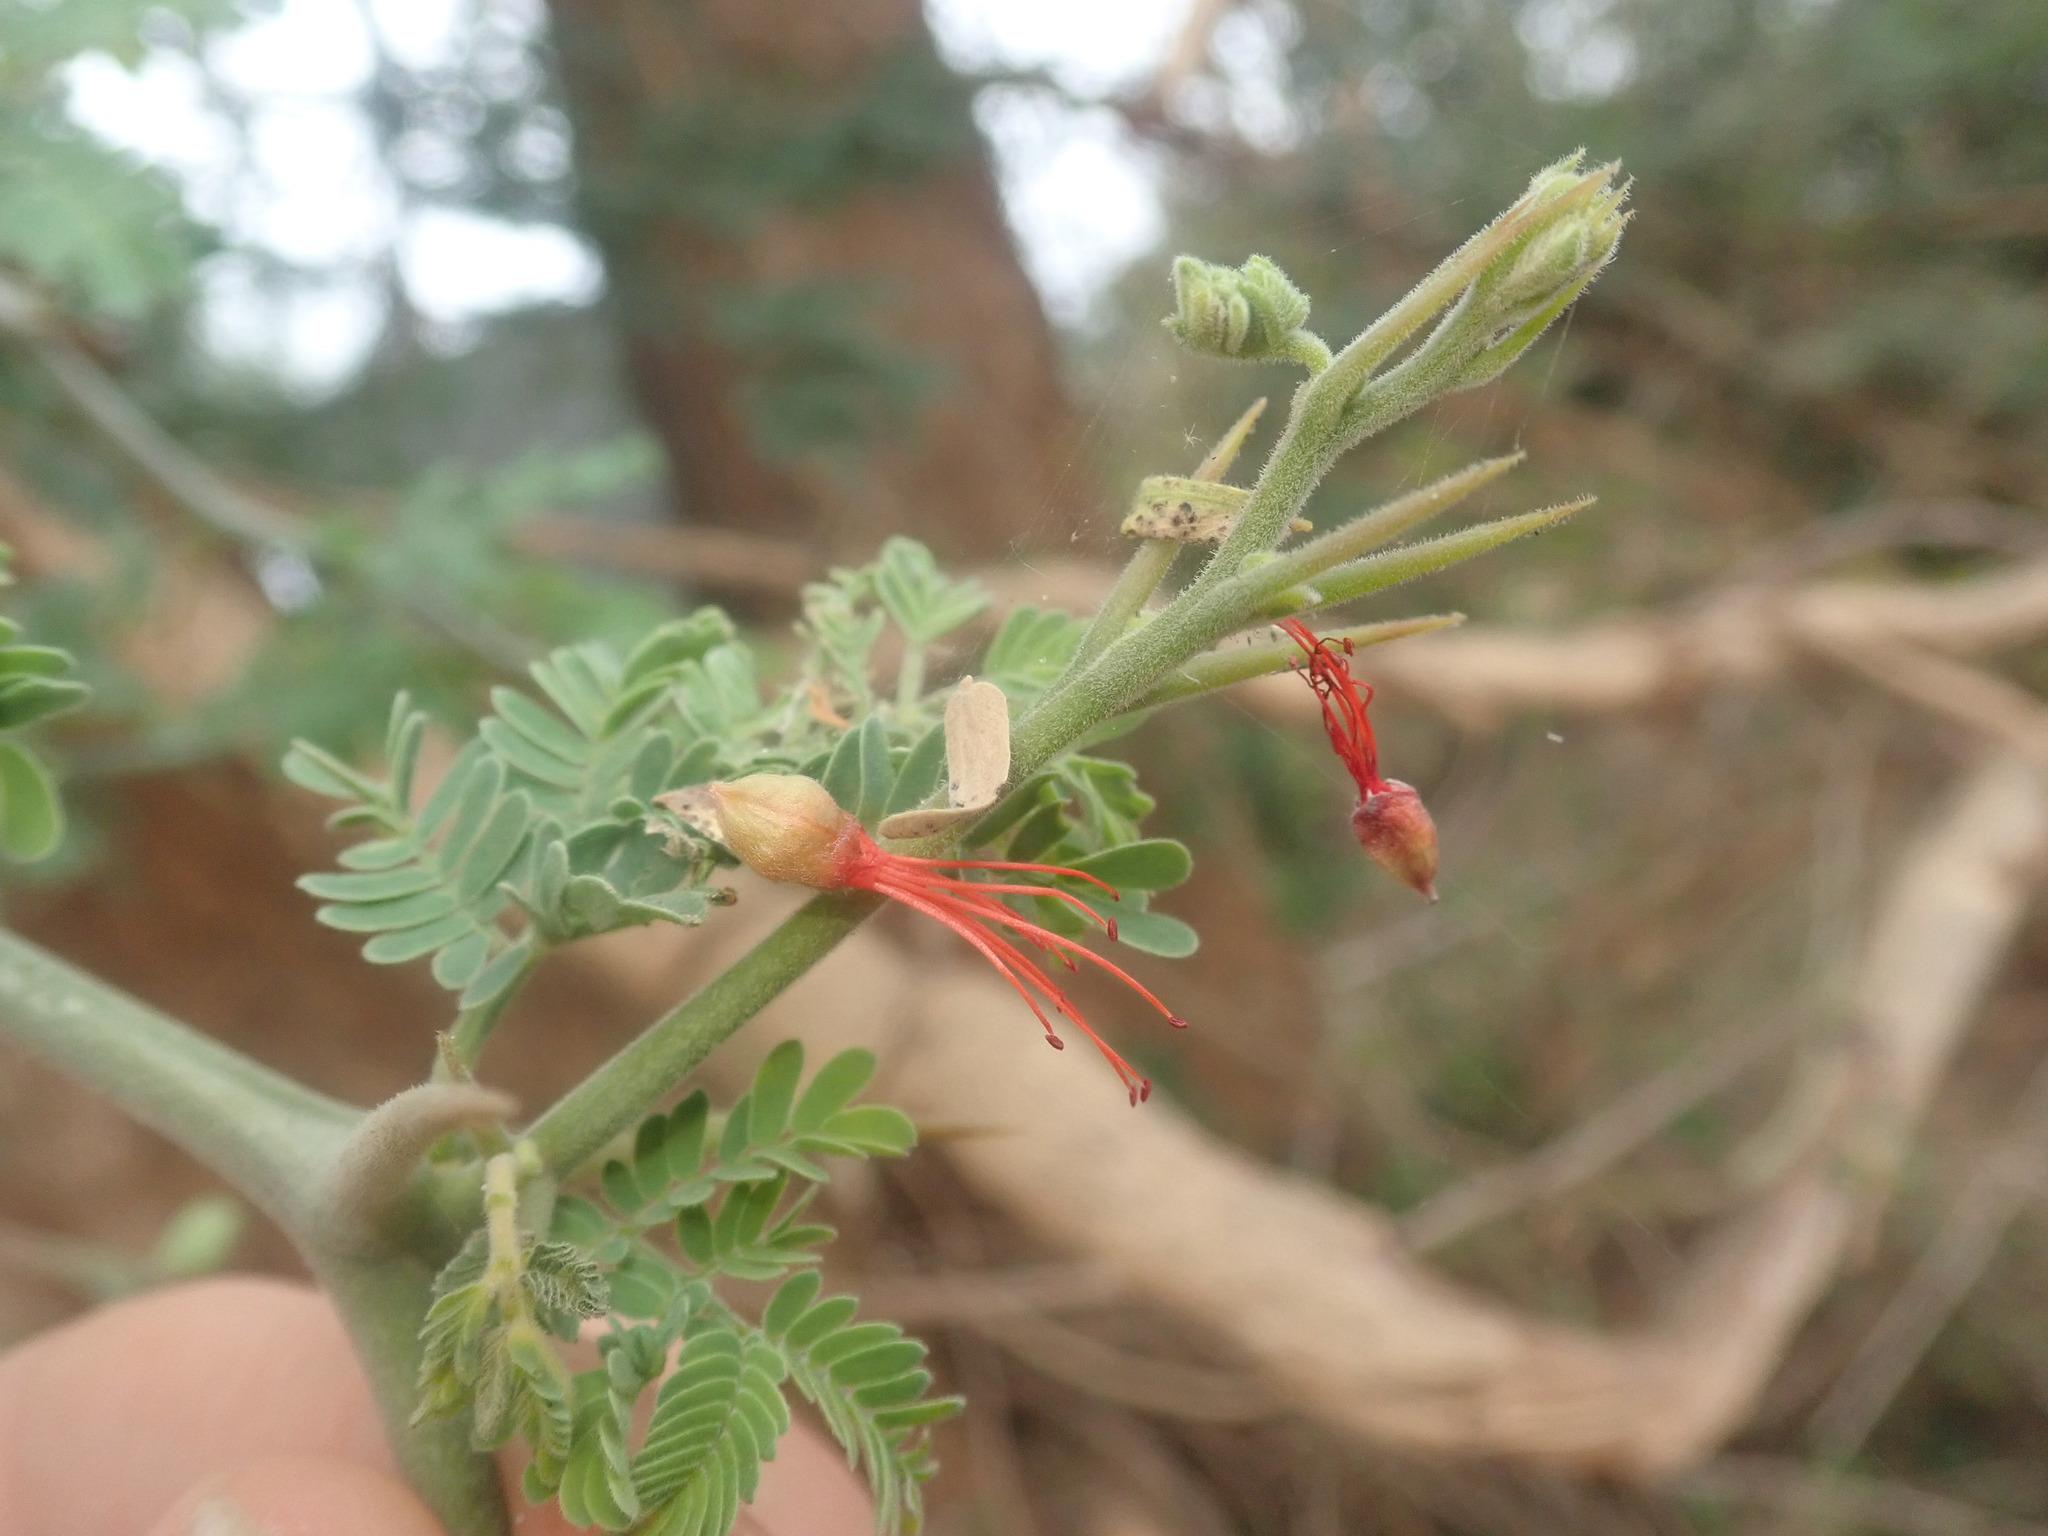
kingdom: Plantae
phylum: Tracheophyta
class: Magnoliopsida
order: Fabales
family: Fabaceae
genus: Faidherbia
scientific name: Faidherbia albida
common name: Anatree
